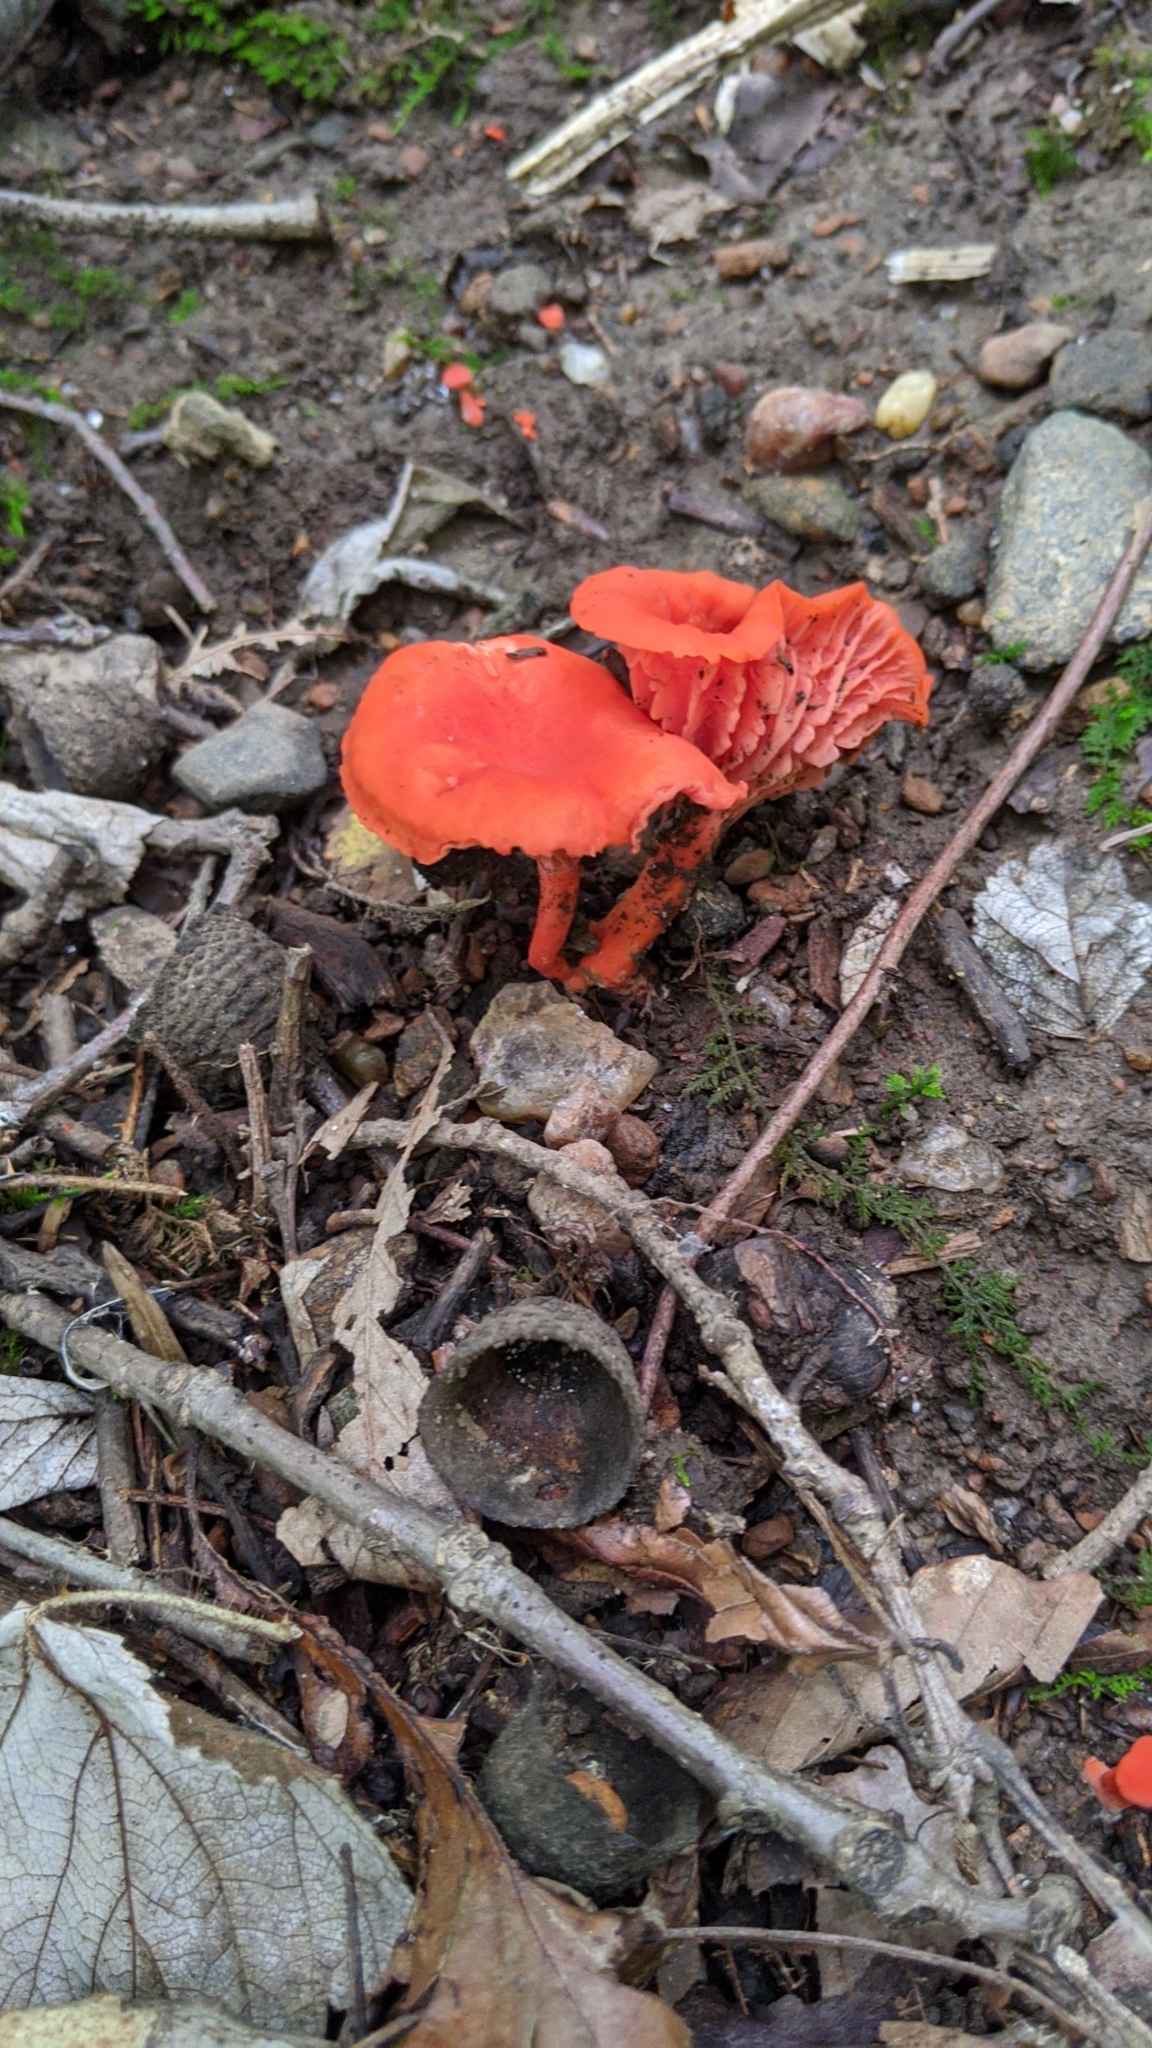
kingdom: Fungi
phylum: Basidiomycota
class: Agaricomycetes
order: Cantharellales
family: Hydnaceae
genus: Cantharellus
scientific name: Cantharellus cinnabarinus
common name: Cinnabar chanterelle
